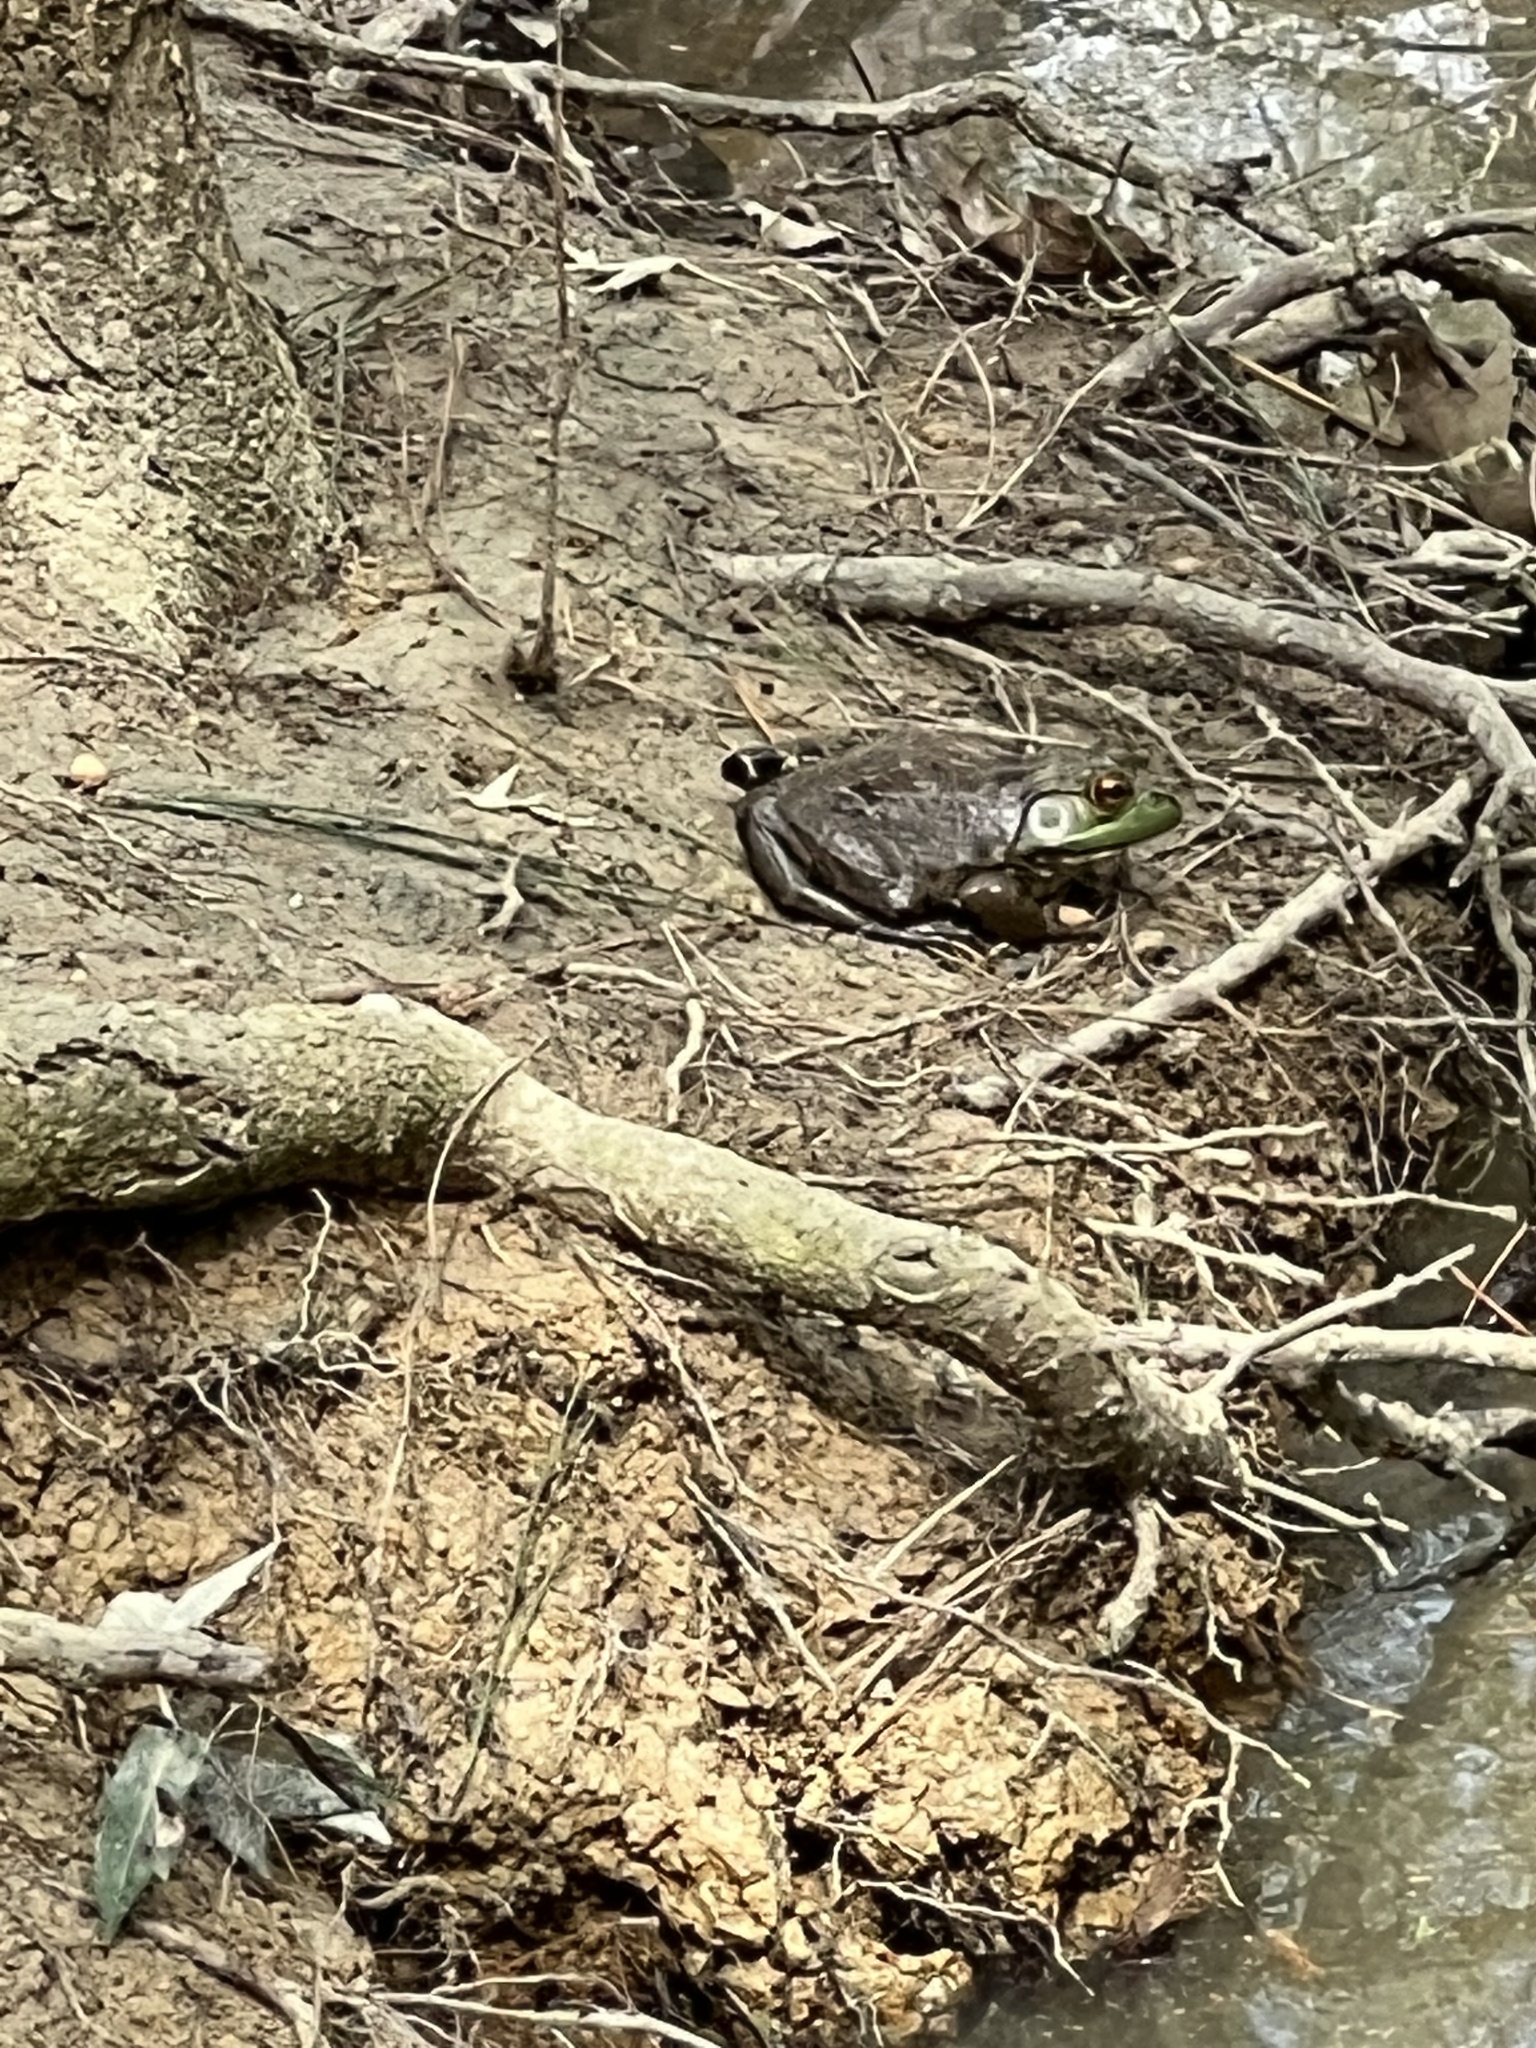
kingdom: Animalia
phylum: Chordata
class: Amphibia
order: Anura
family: Ranidae
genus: Lithobates
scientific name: Lithobates catesbeianus
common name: American bullfrog
